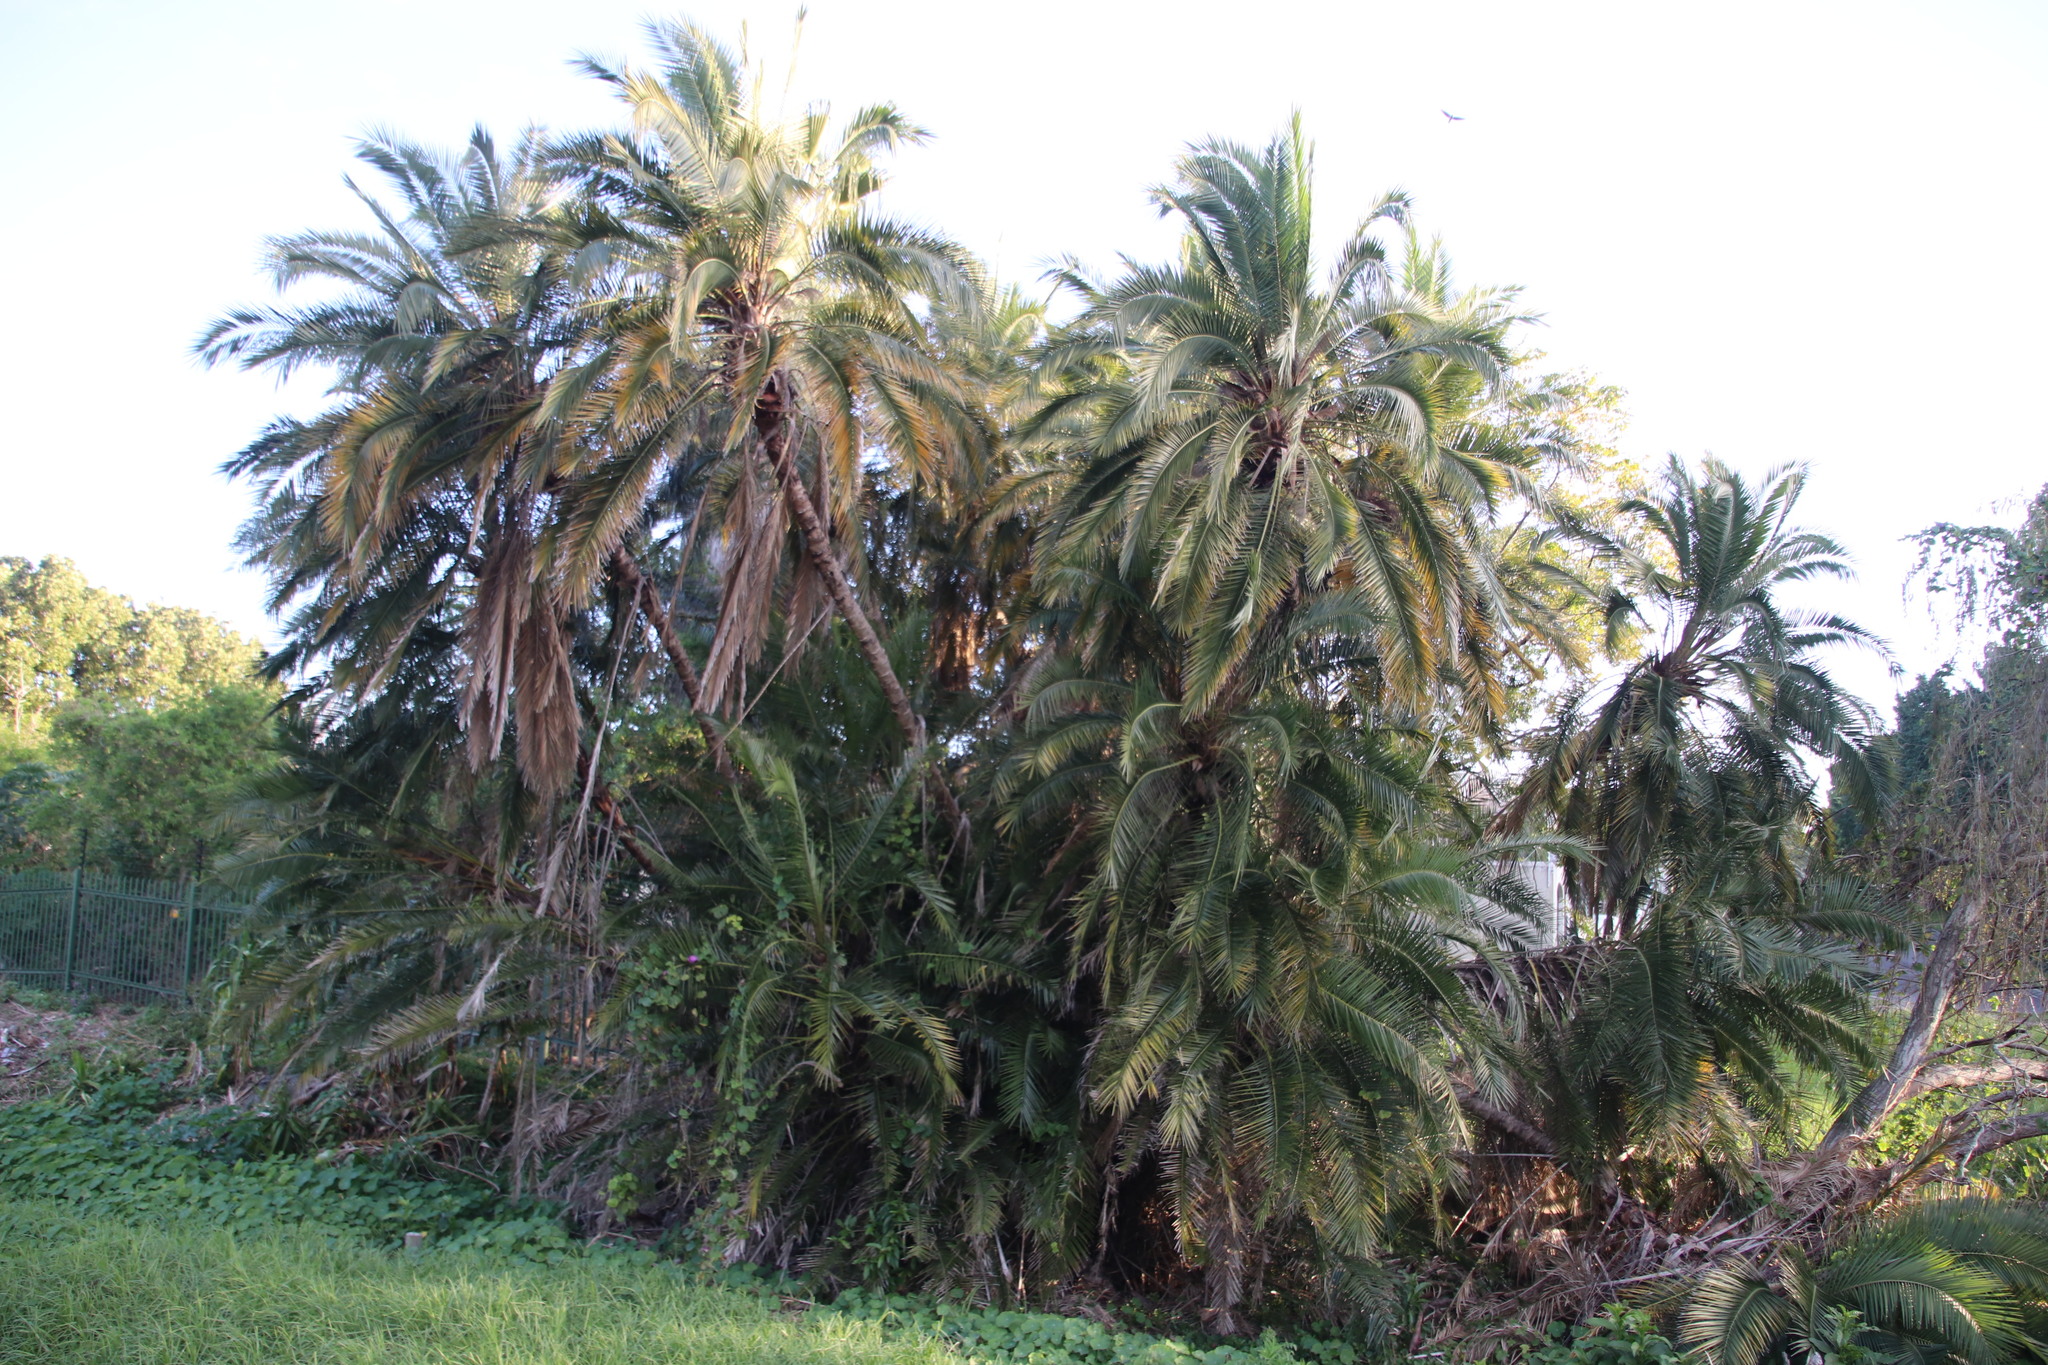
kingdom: Plantae
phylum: Tracheophyta
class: Liliopsida
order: Arecales
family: Arecaceae
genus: Phoenix
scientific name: Phoenix reclinata
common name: Senegal date palm
